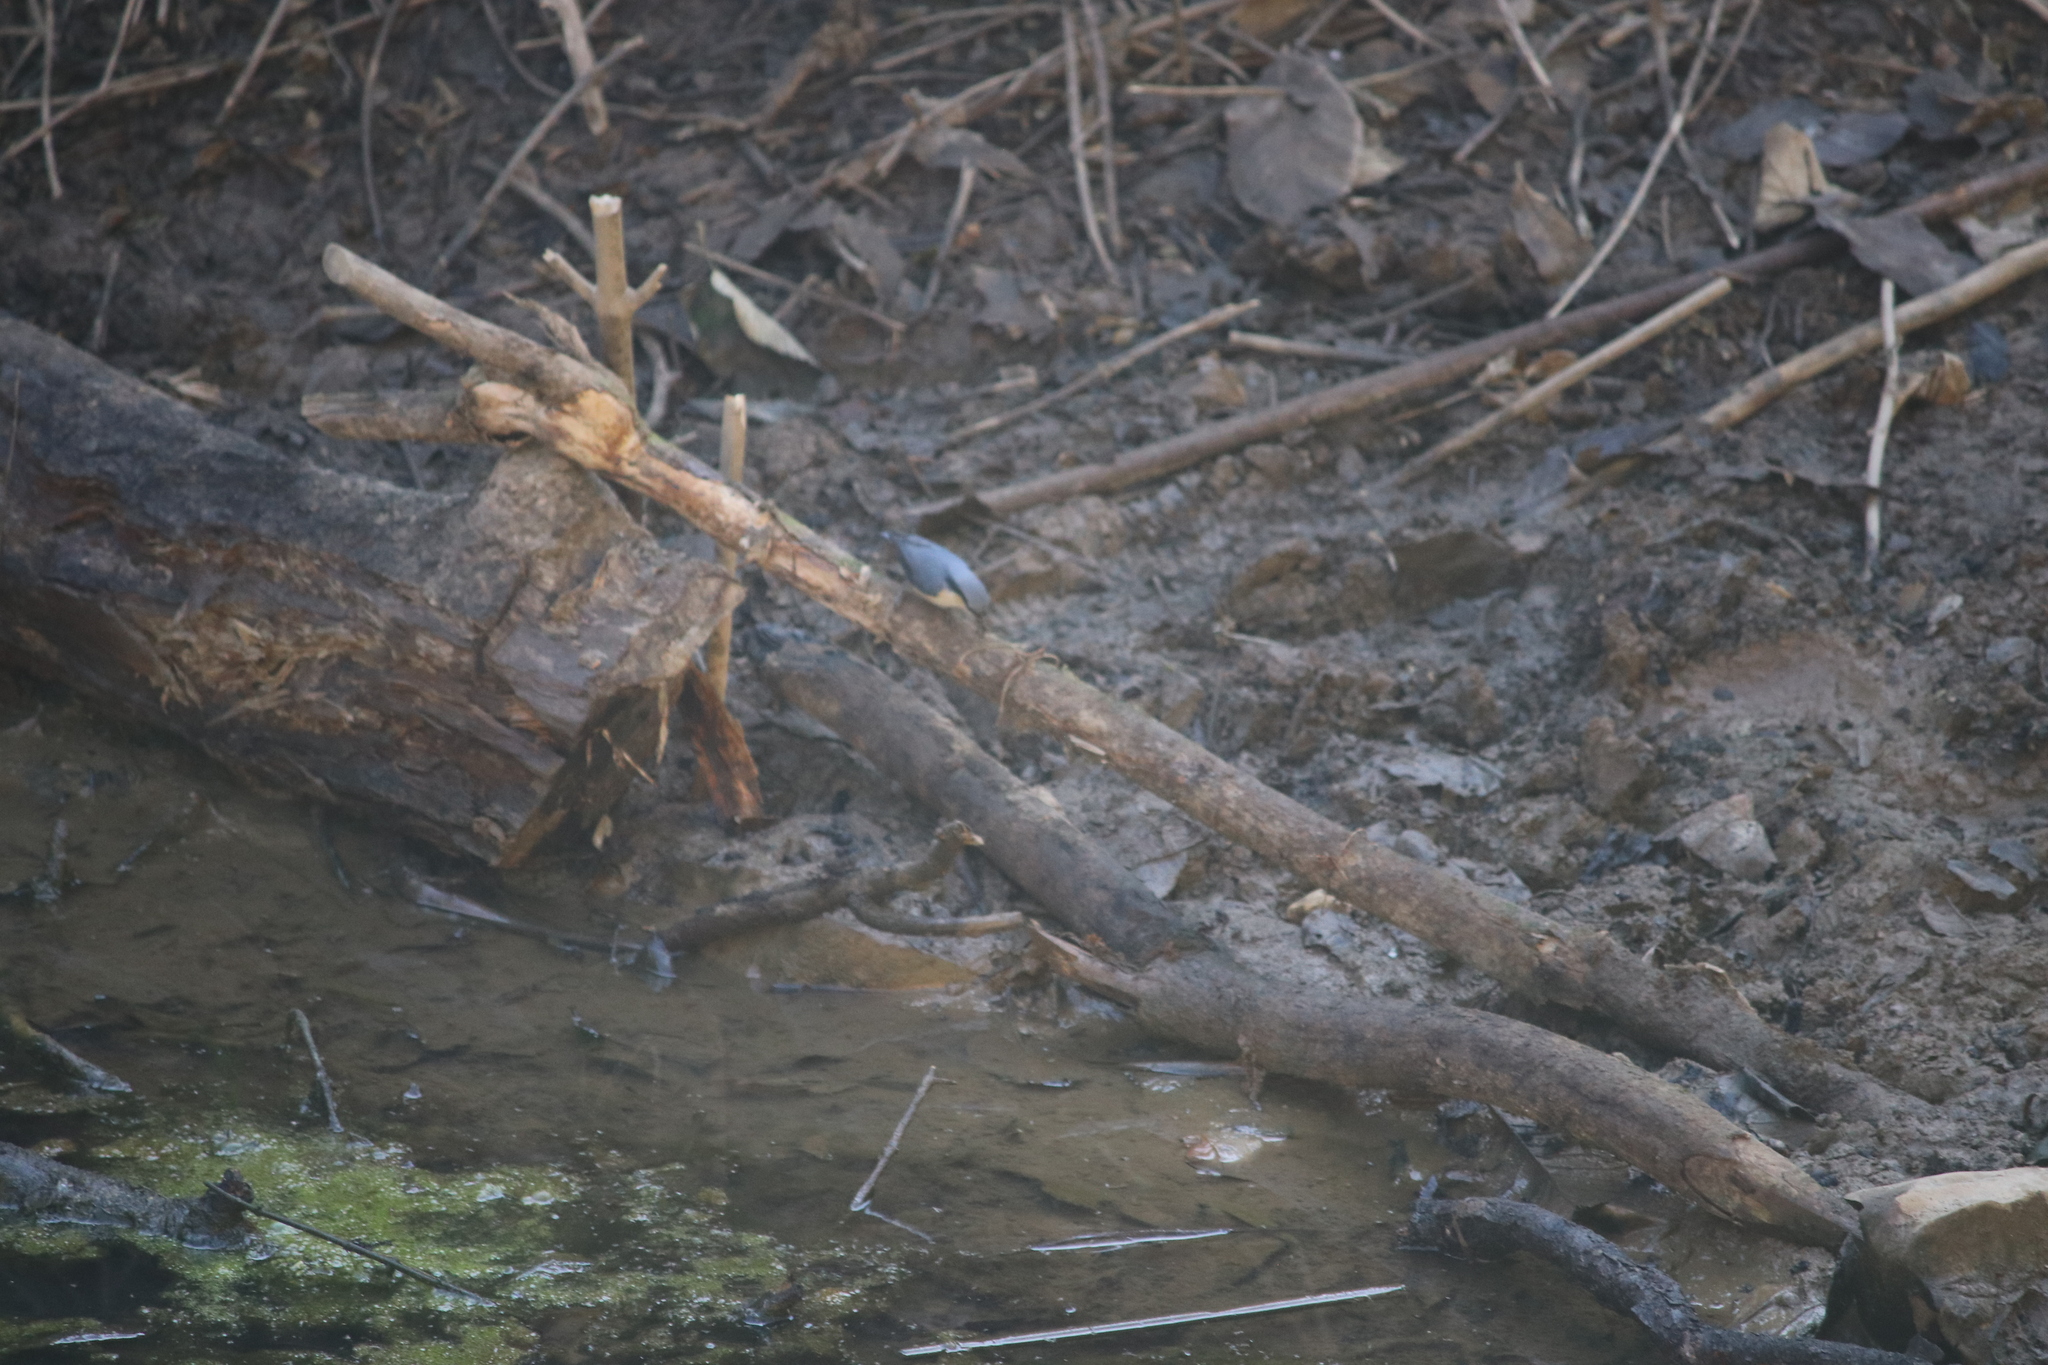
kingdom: Animalia
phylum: Chordata
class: Aves
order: Passeriformes
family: Sittidae
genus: Sitta
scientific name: Sitta himalayensis
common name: White-tailed nuthatch
